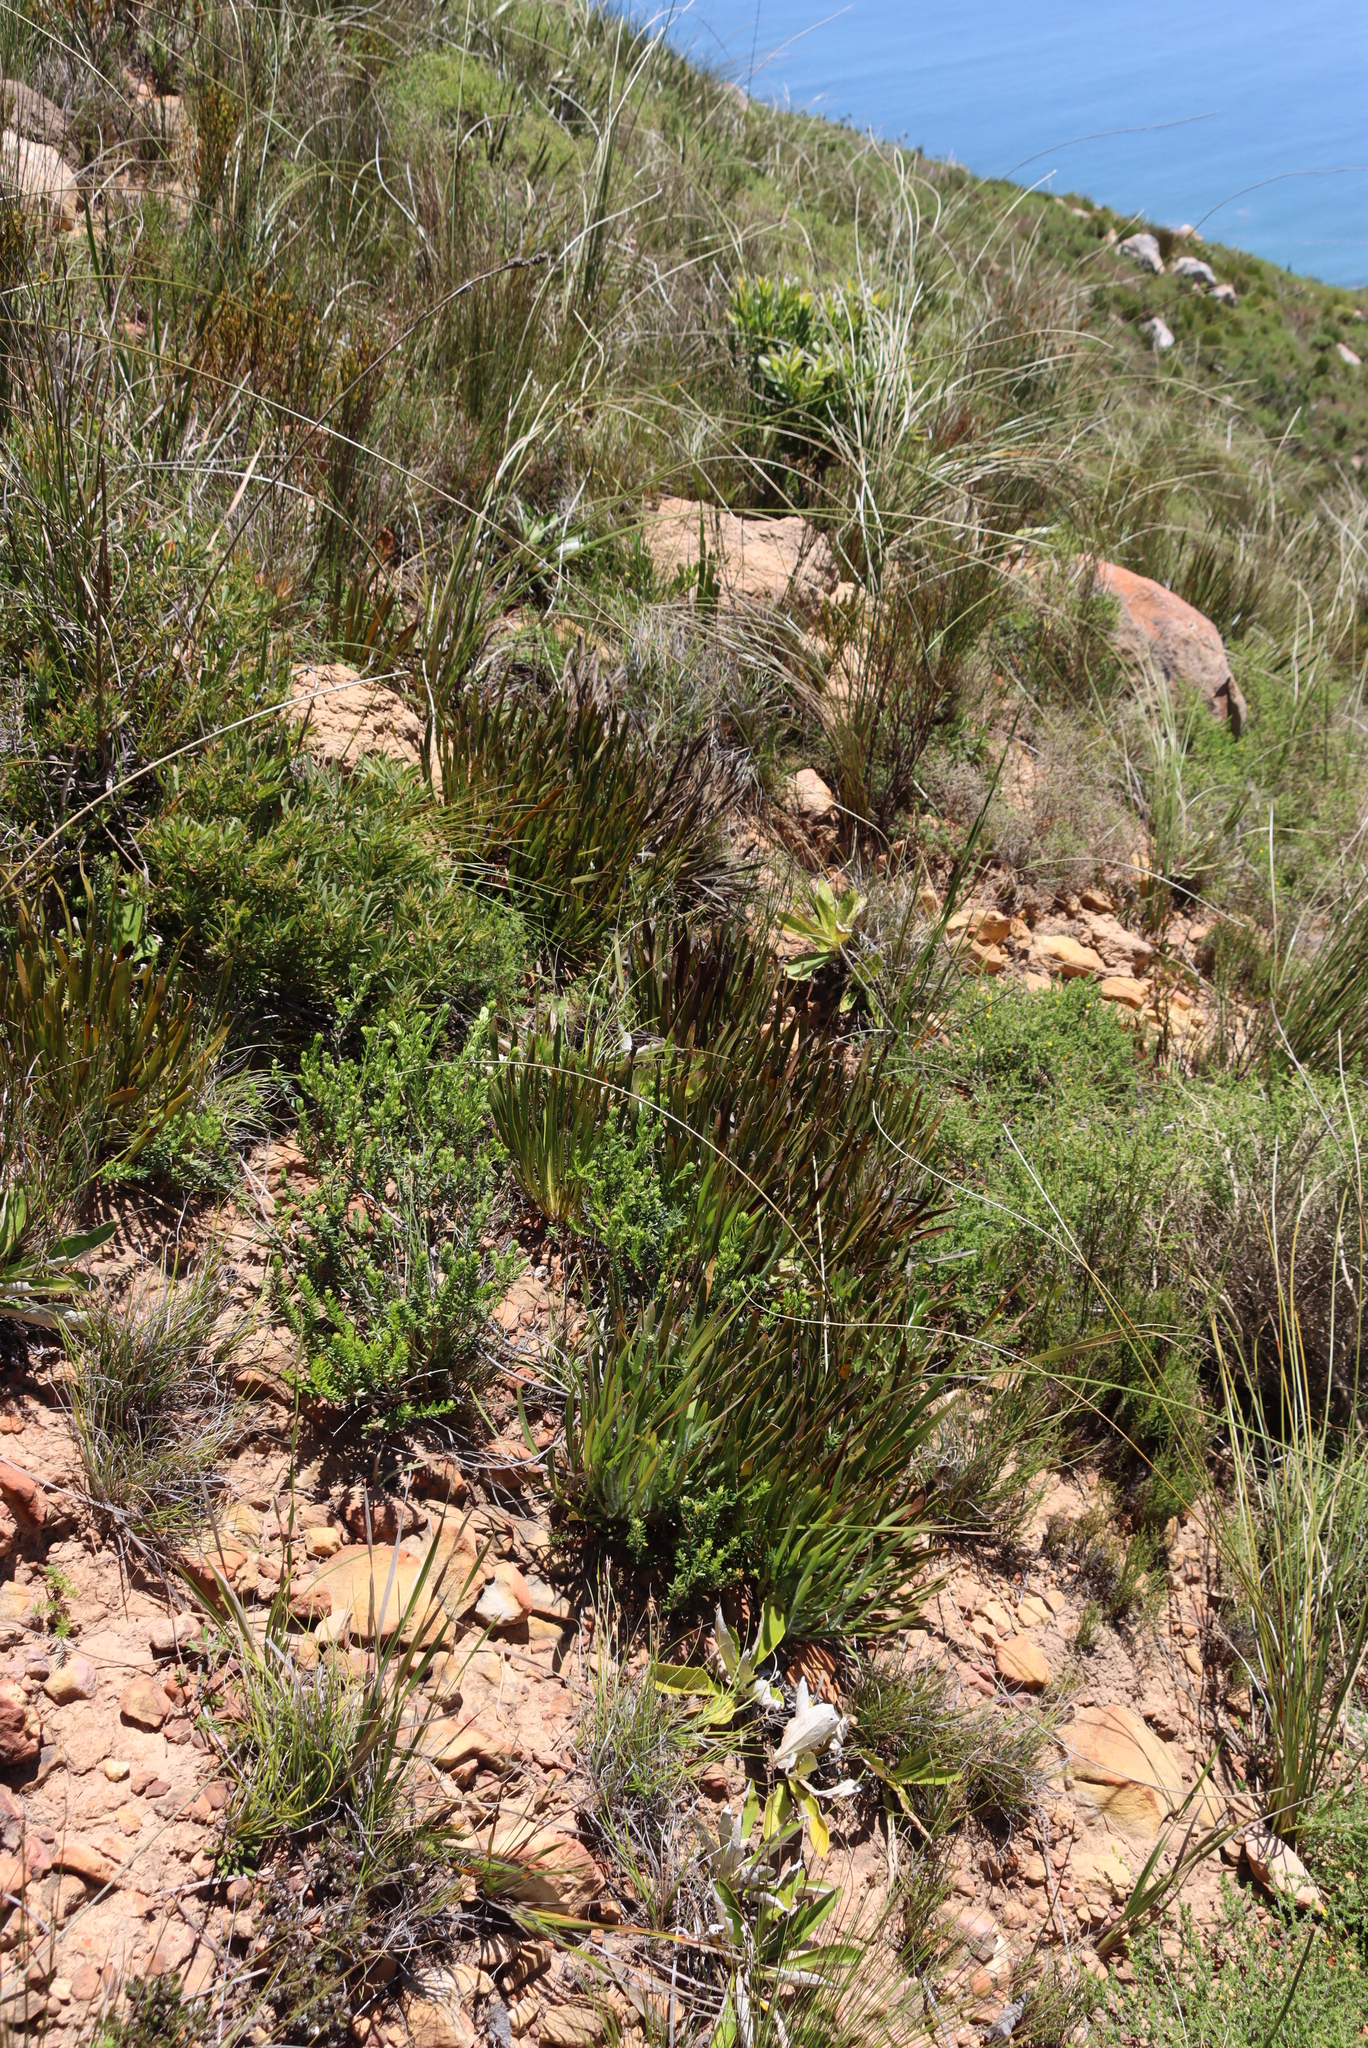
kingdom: Plantae
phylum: Tracheophyta
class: Magnoliopsida
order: Proteales
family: Proteaceae
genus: Protea
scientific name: Protea scabra
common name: Sandpaper-leaf sugarbush
